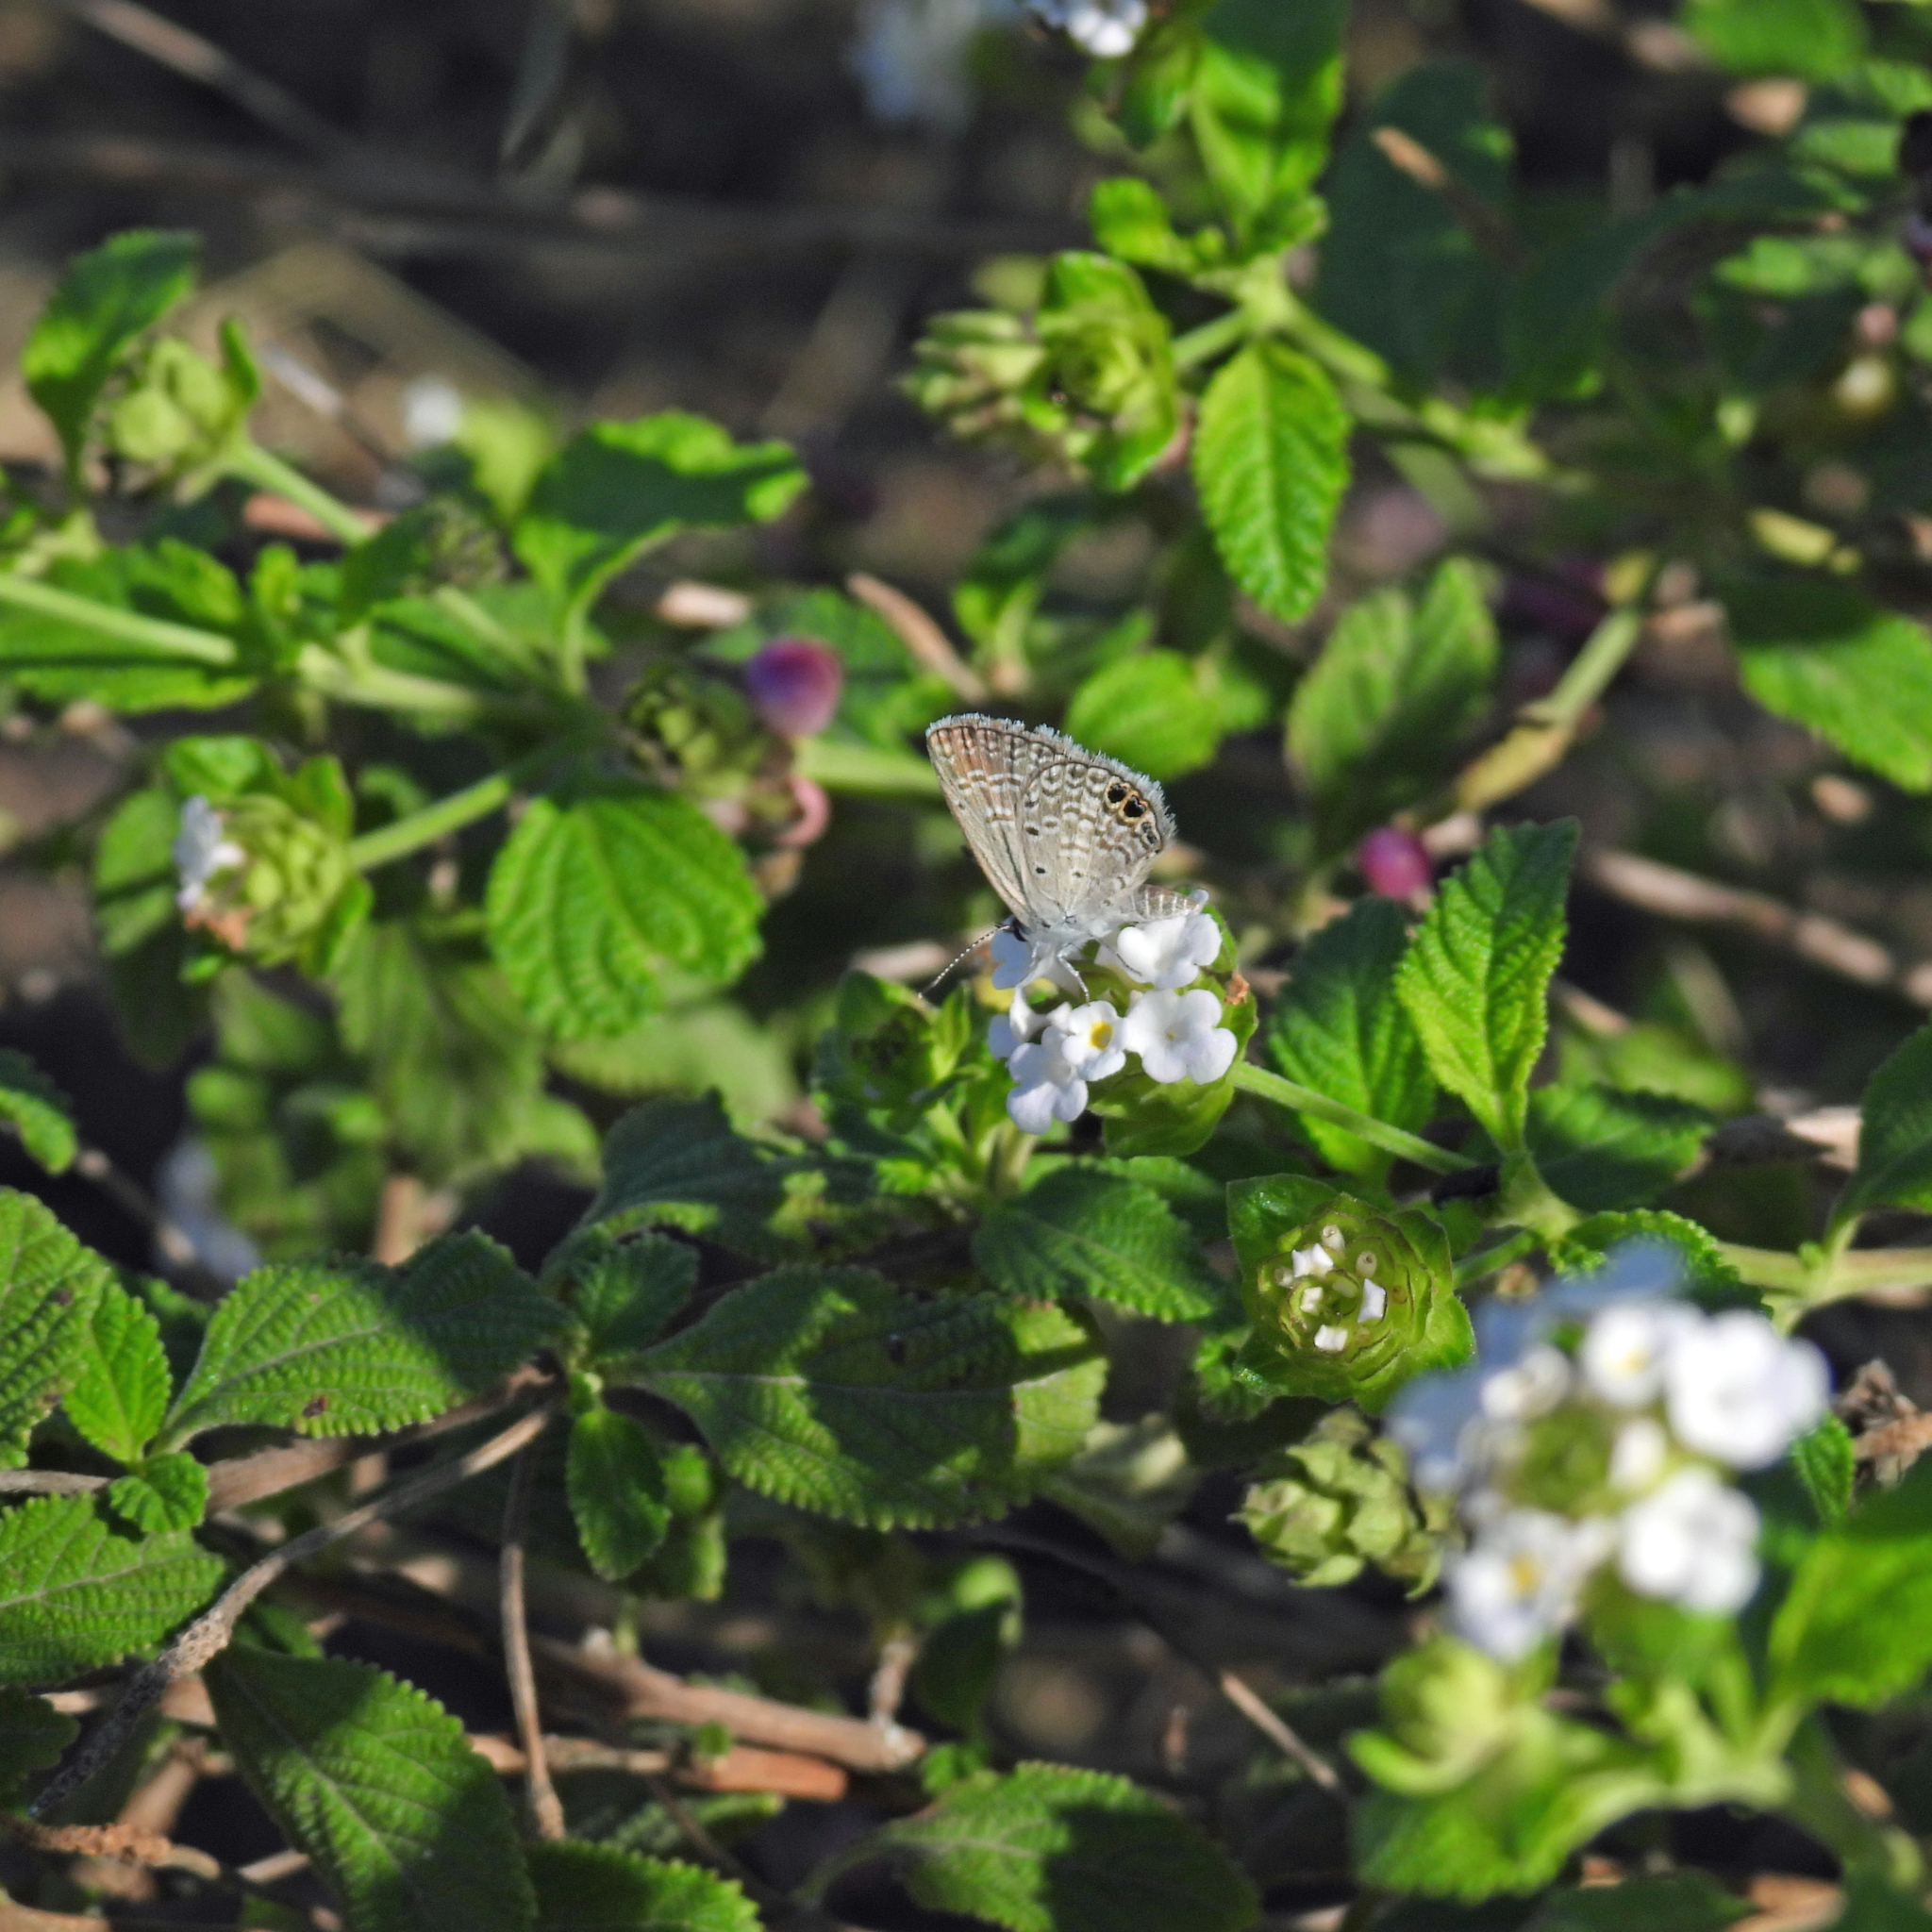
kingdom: Animalia
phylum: Arthropoda
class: Insecta
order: Lepidoptera
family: Lycaenidae
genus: Hemiargus
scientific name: Hemiargus ceraunus
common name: Ceraunus blue
